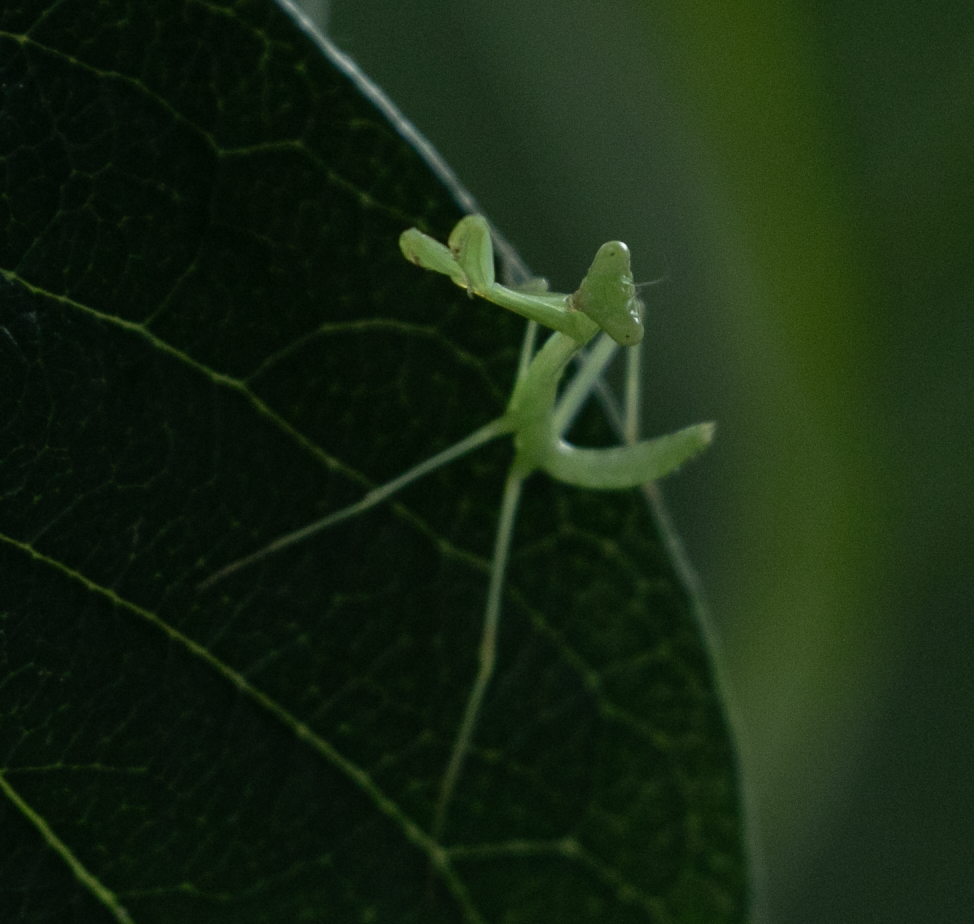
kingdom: Animalia
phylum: Arthropoda
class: Insecta
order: Mantodea
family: Mantidae
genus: Hierodula
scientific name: Hierodula transcaucasica
